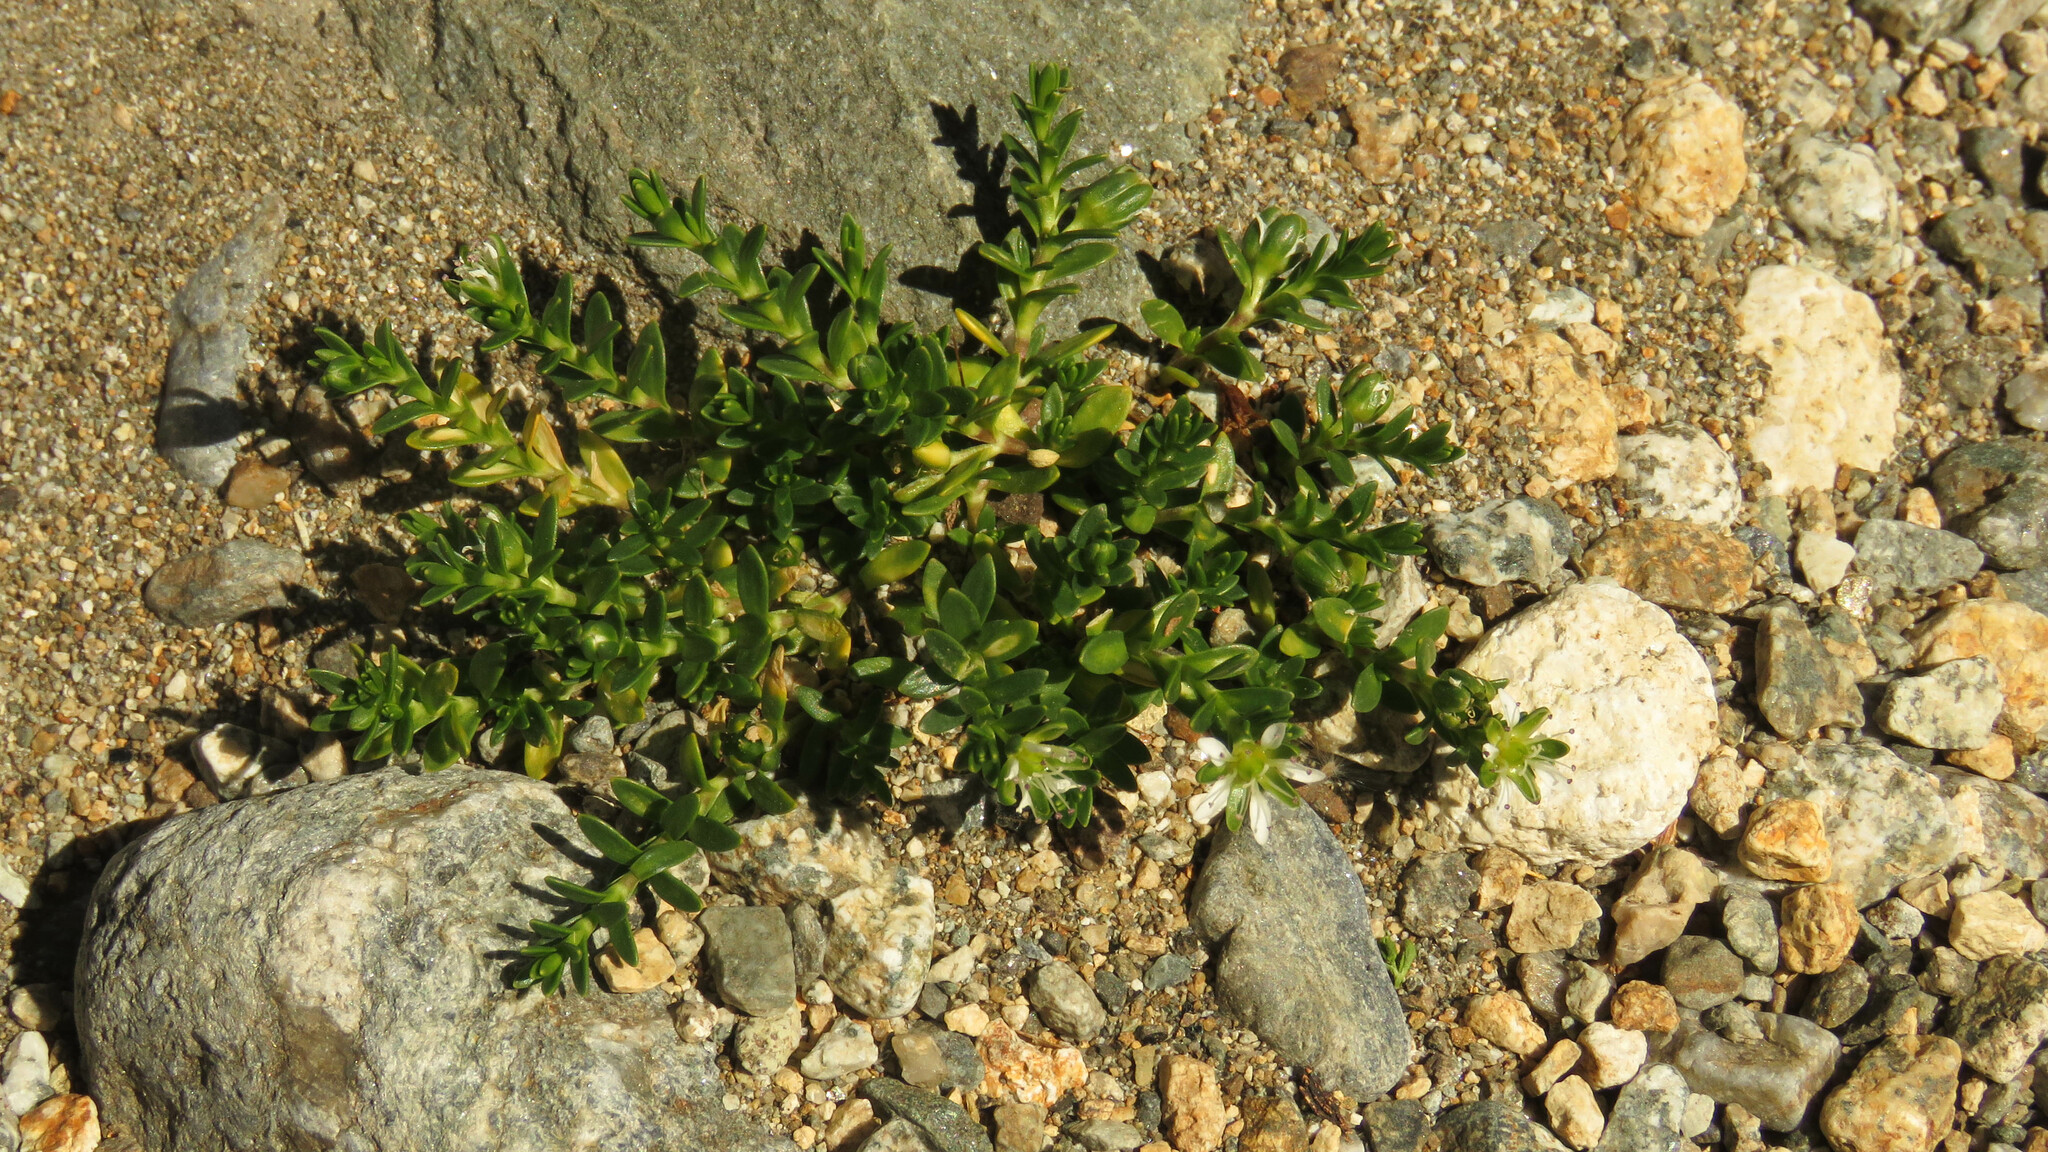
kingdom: Plantae
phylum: Tracheophyta
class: Magnoliopsida
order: Caryophyllales
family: Caryophyllaceae
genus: Arenaria
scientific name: Arenaria serpens
